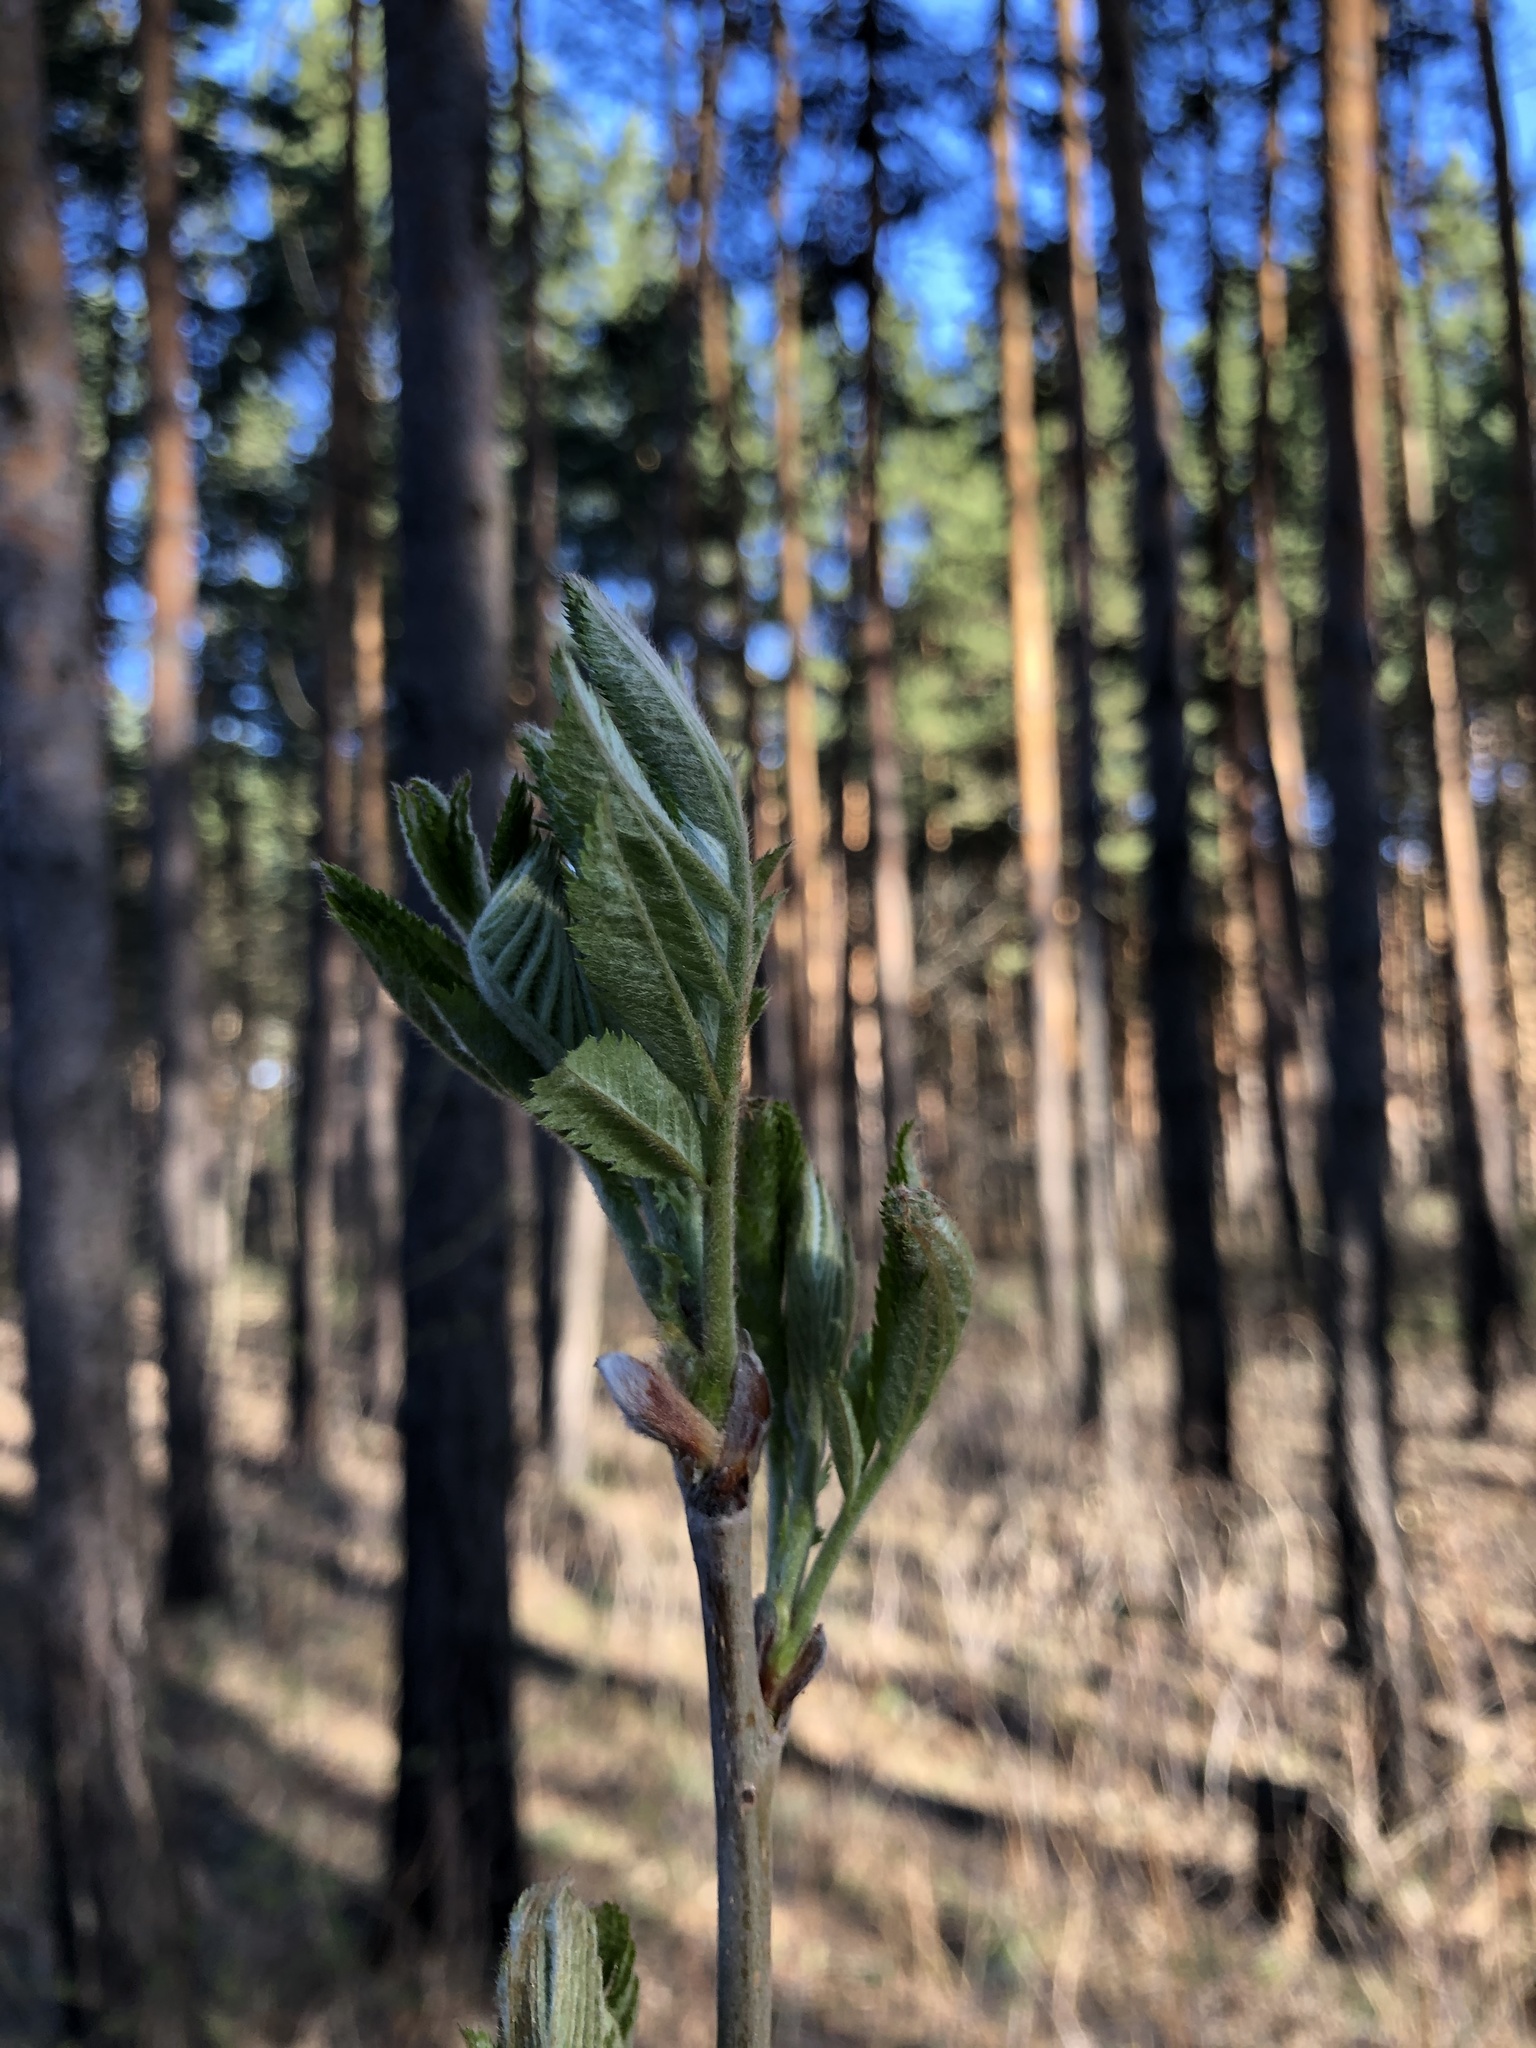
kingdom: Plantae
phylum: Tracheophyta
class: Magnoliopsida
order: Rosales
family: Rosaceae
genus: Sorbus
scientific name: Sorbus aucuparia
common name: Rowan
